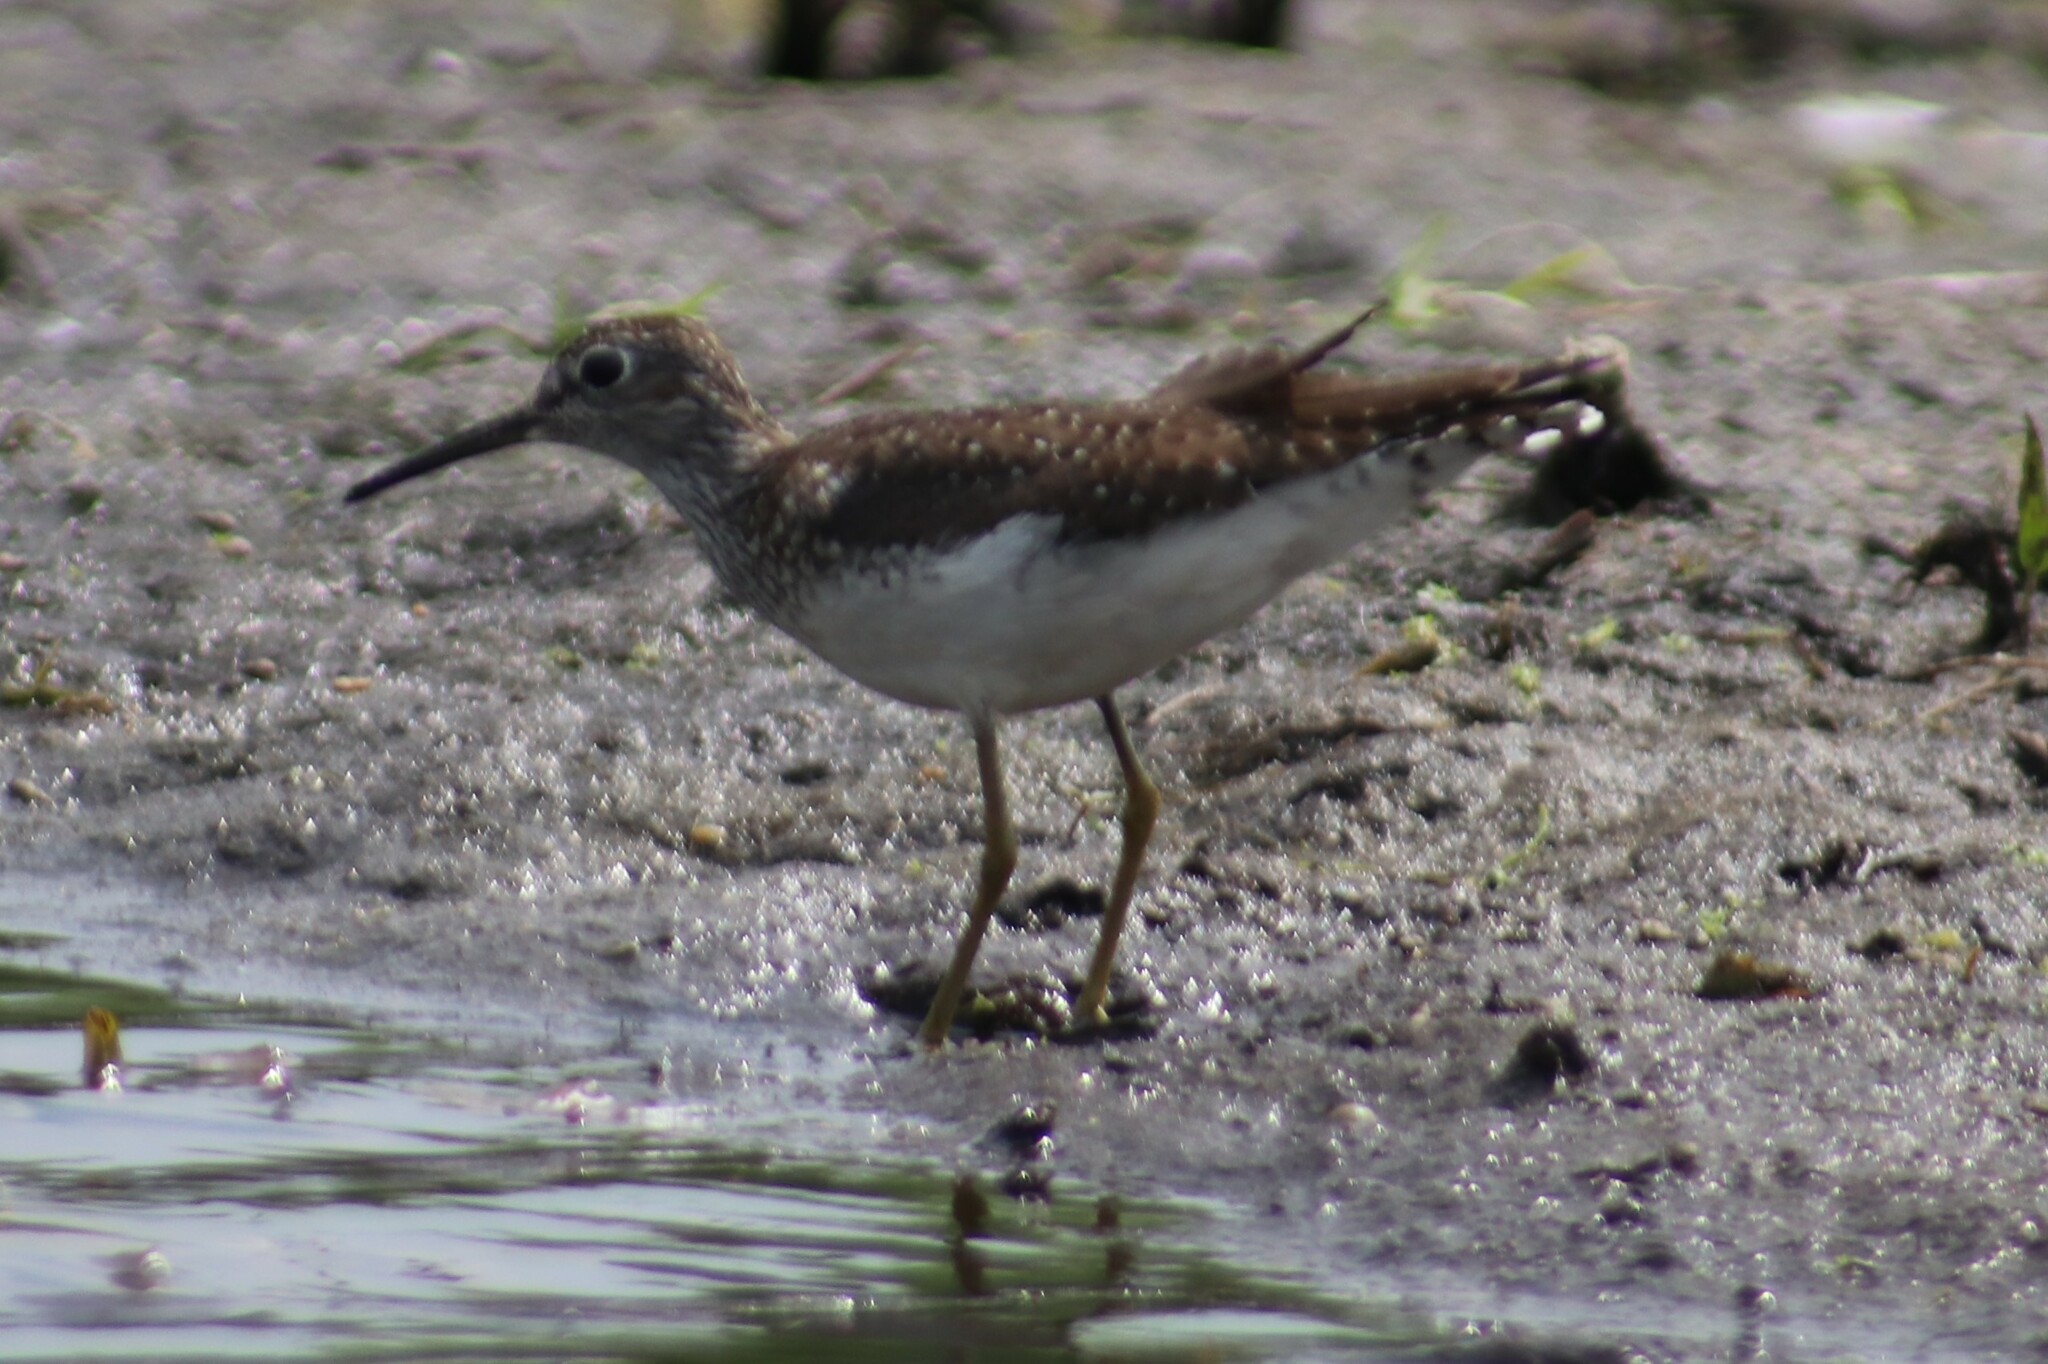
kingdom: Animalia
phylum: Chordata
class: Aves
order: Charadriiformes
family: Scolopacidae
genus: Tringa
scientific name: Tringa solitaria
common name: Solitary sandpiper
